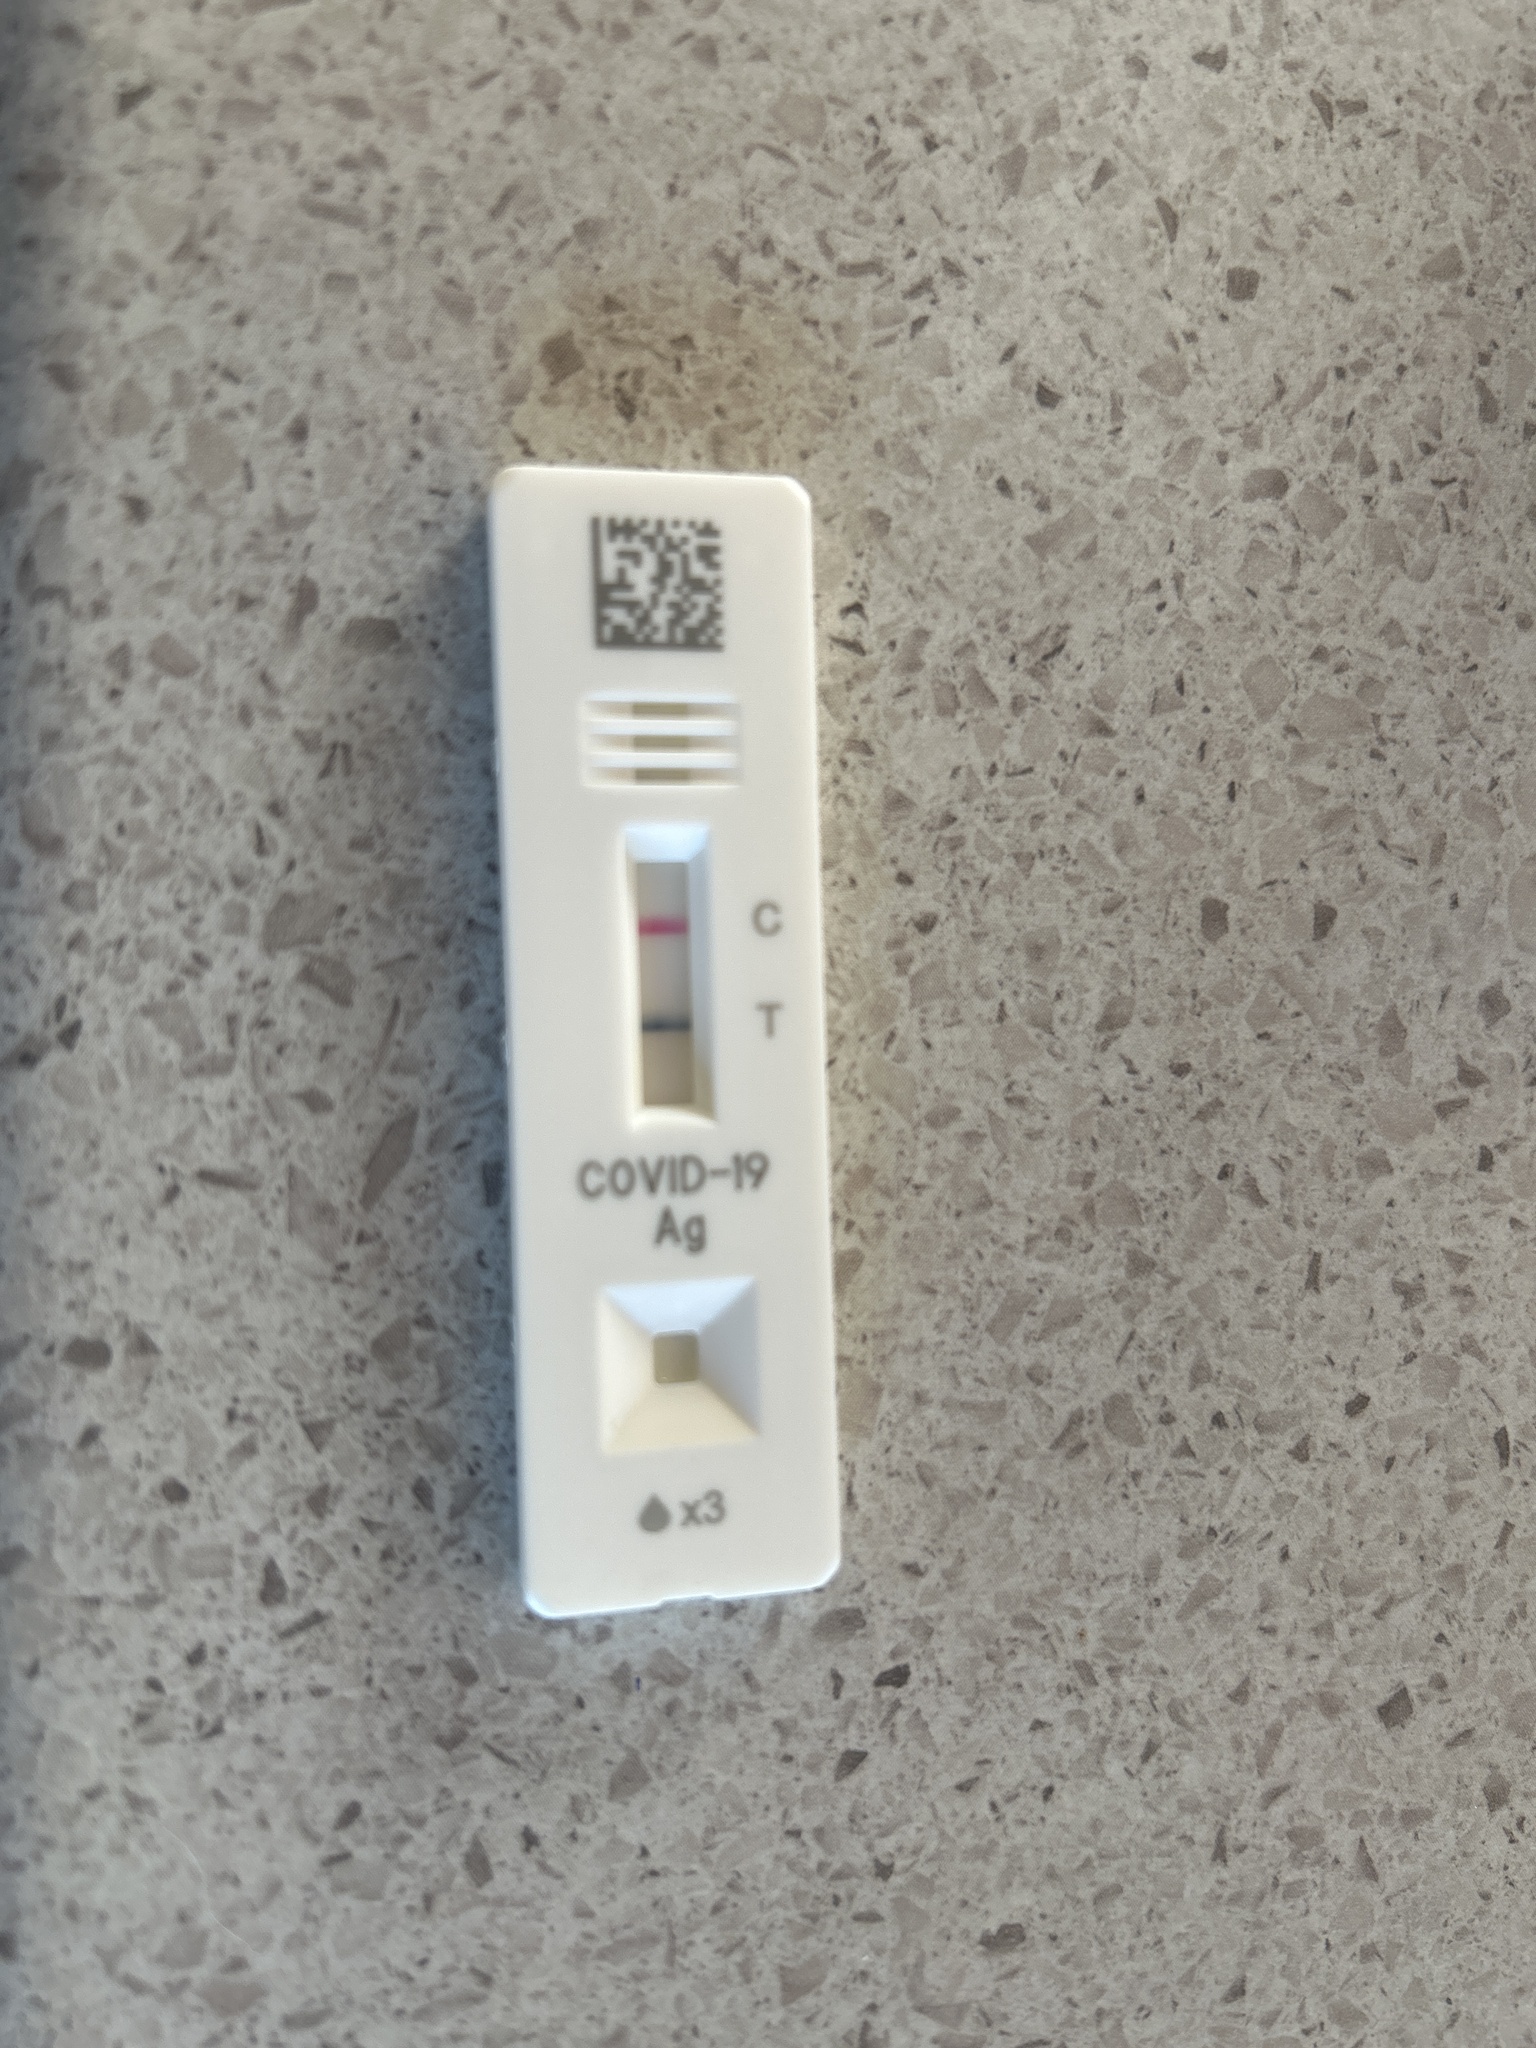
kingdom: Viruses
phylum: Pisuviricota
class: Pisoniviricetes
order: Nidovirales
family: Coronaviridae
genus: Betacoronavirus
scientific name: Betacoronavirus
